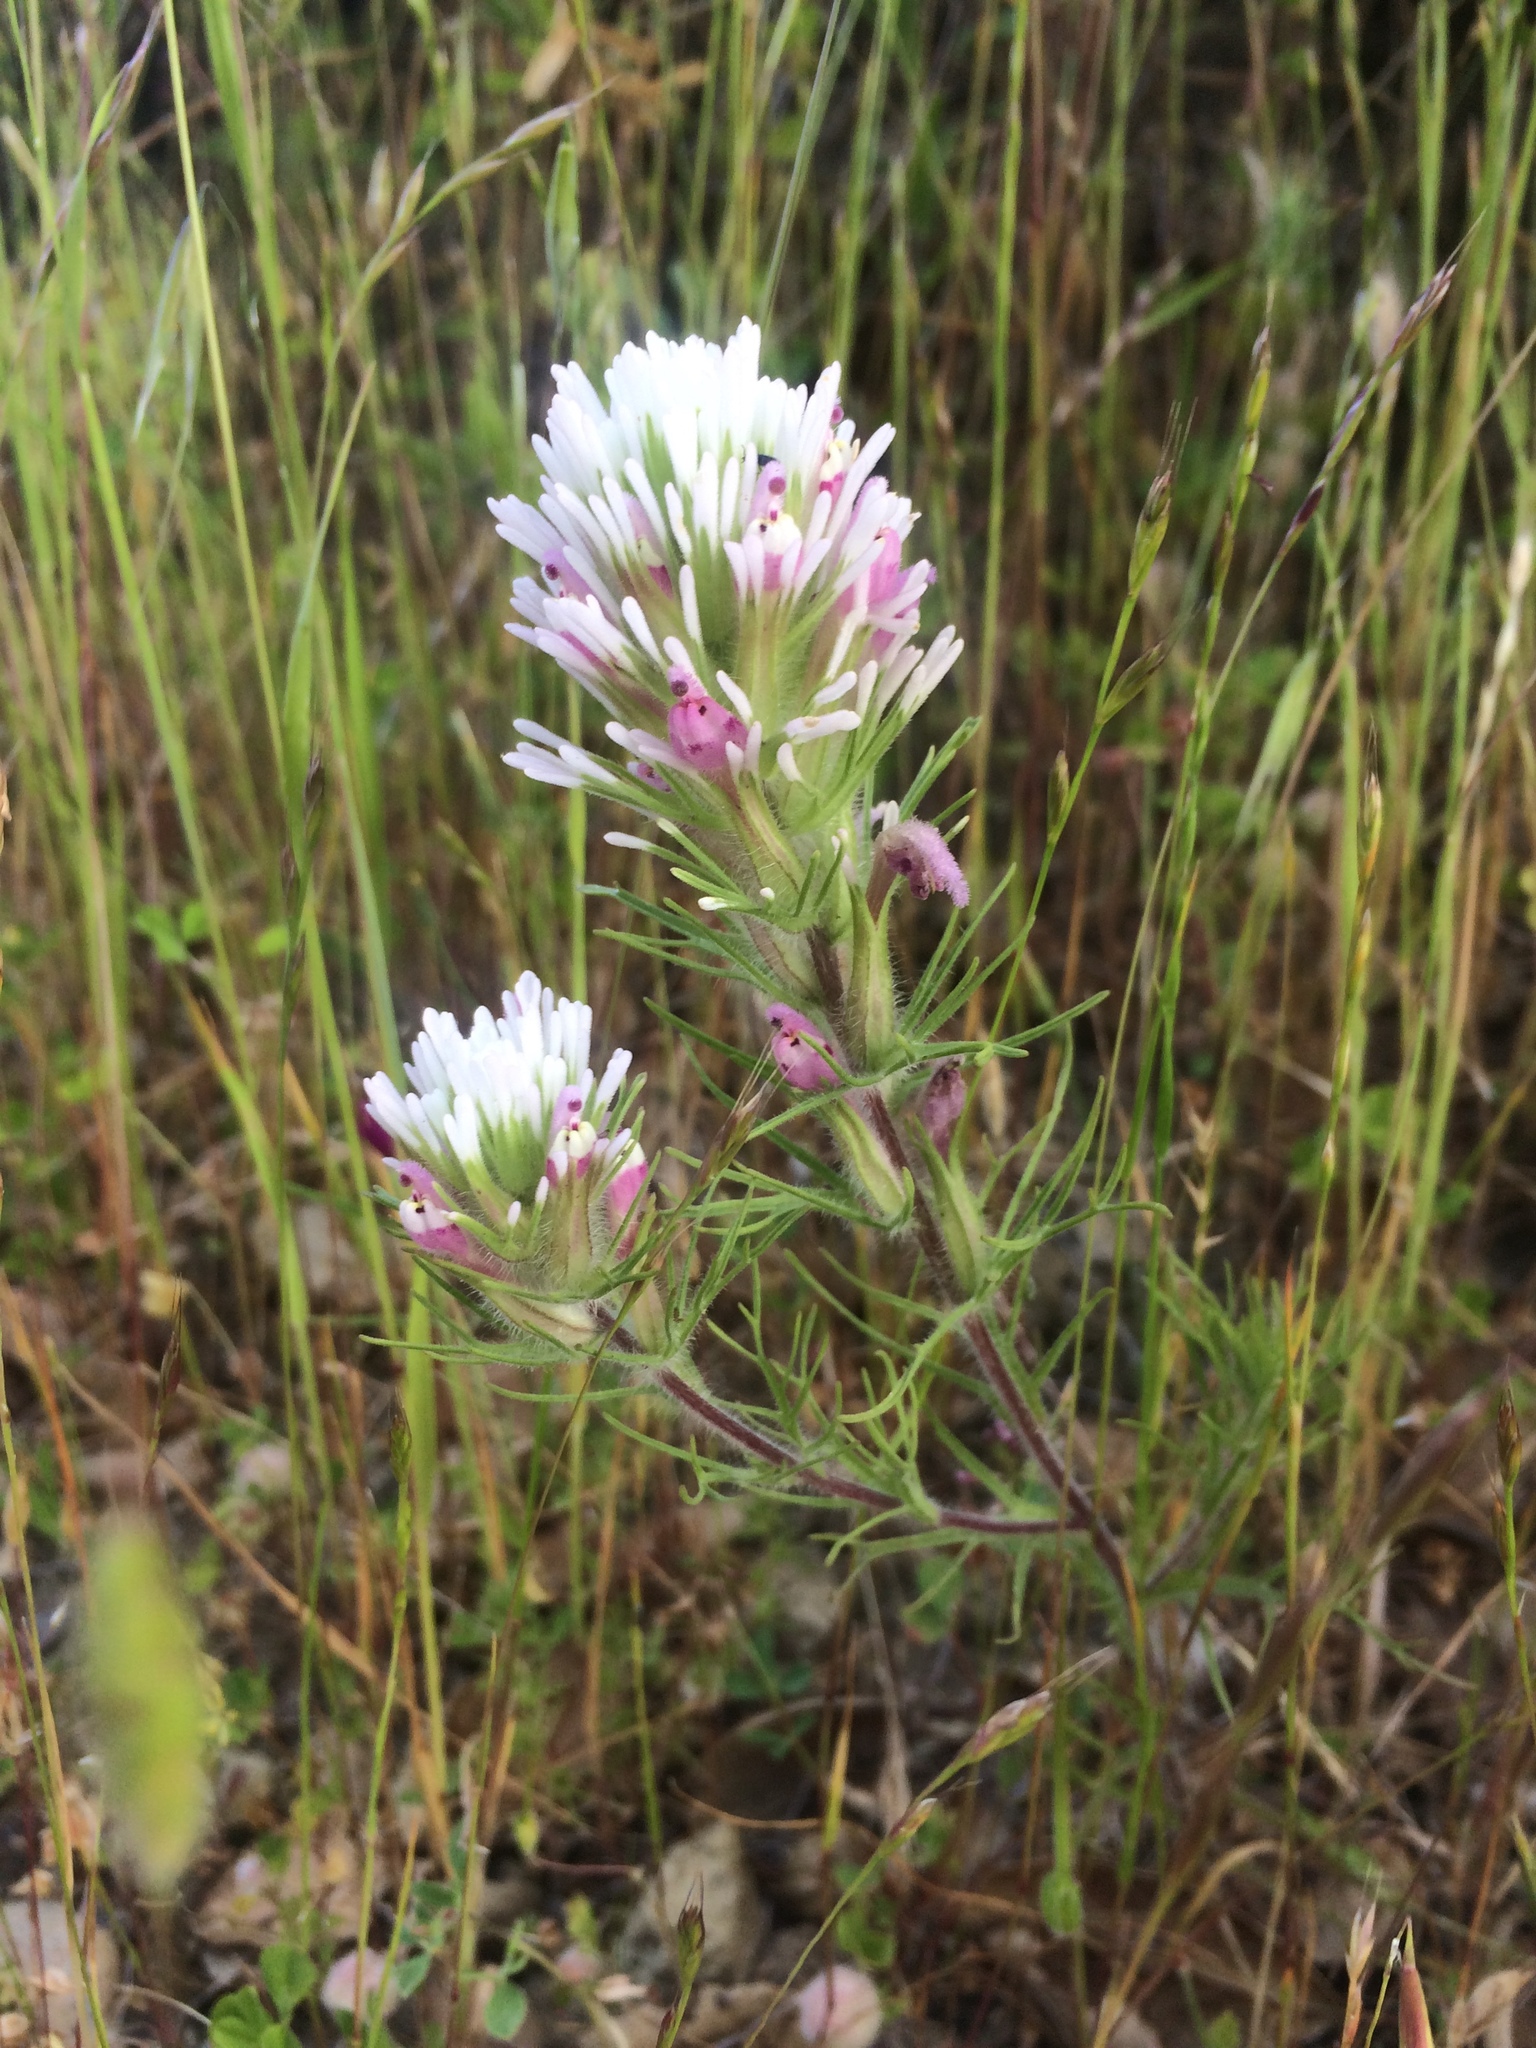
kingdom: Plantae
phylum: Tracheophyta
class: Magnoliopsida
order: Lamiales
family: Orobanchaceae
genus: Castilleja
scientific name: Castilleja exserta
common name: Purple owl-clover
